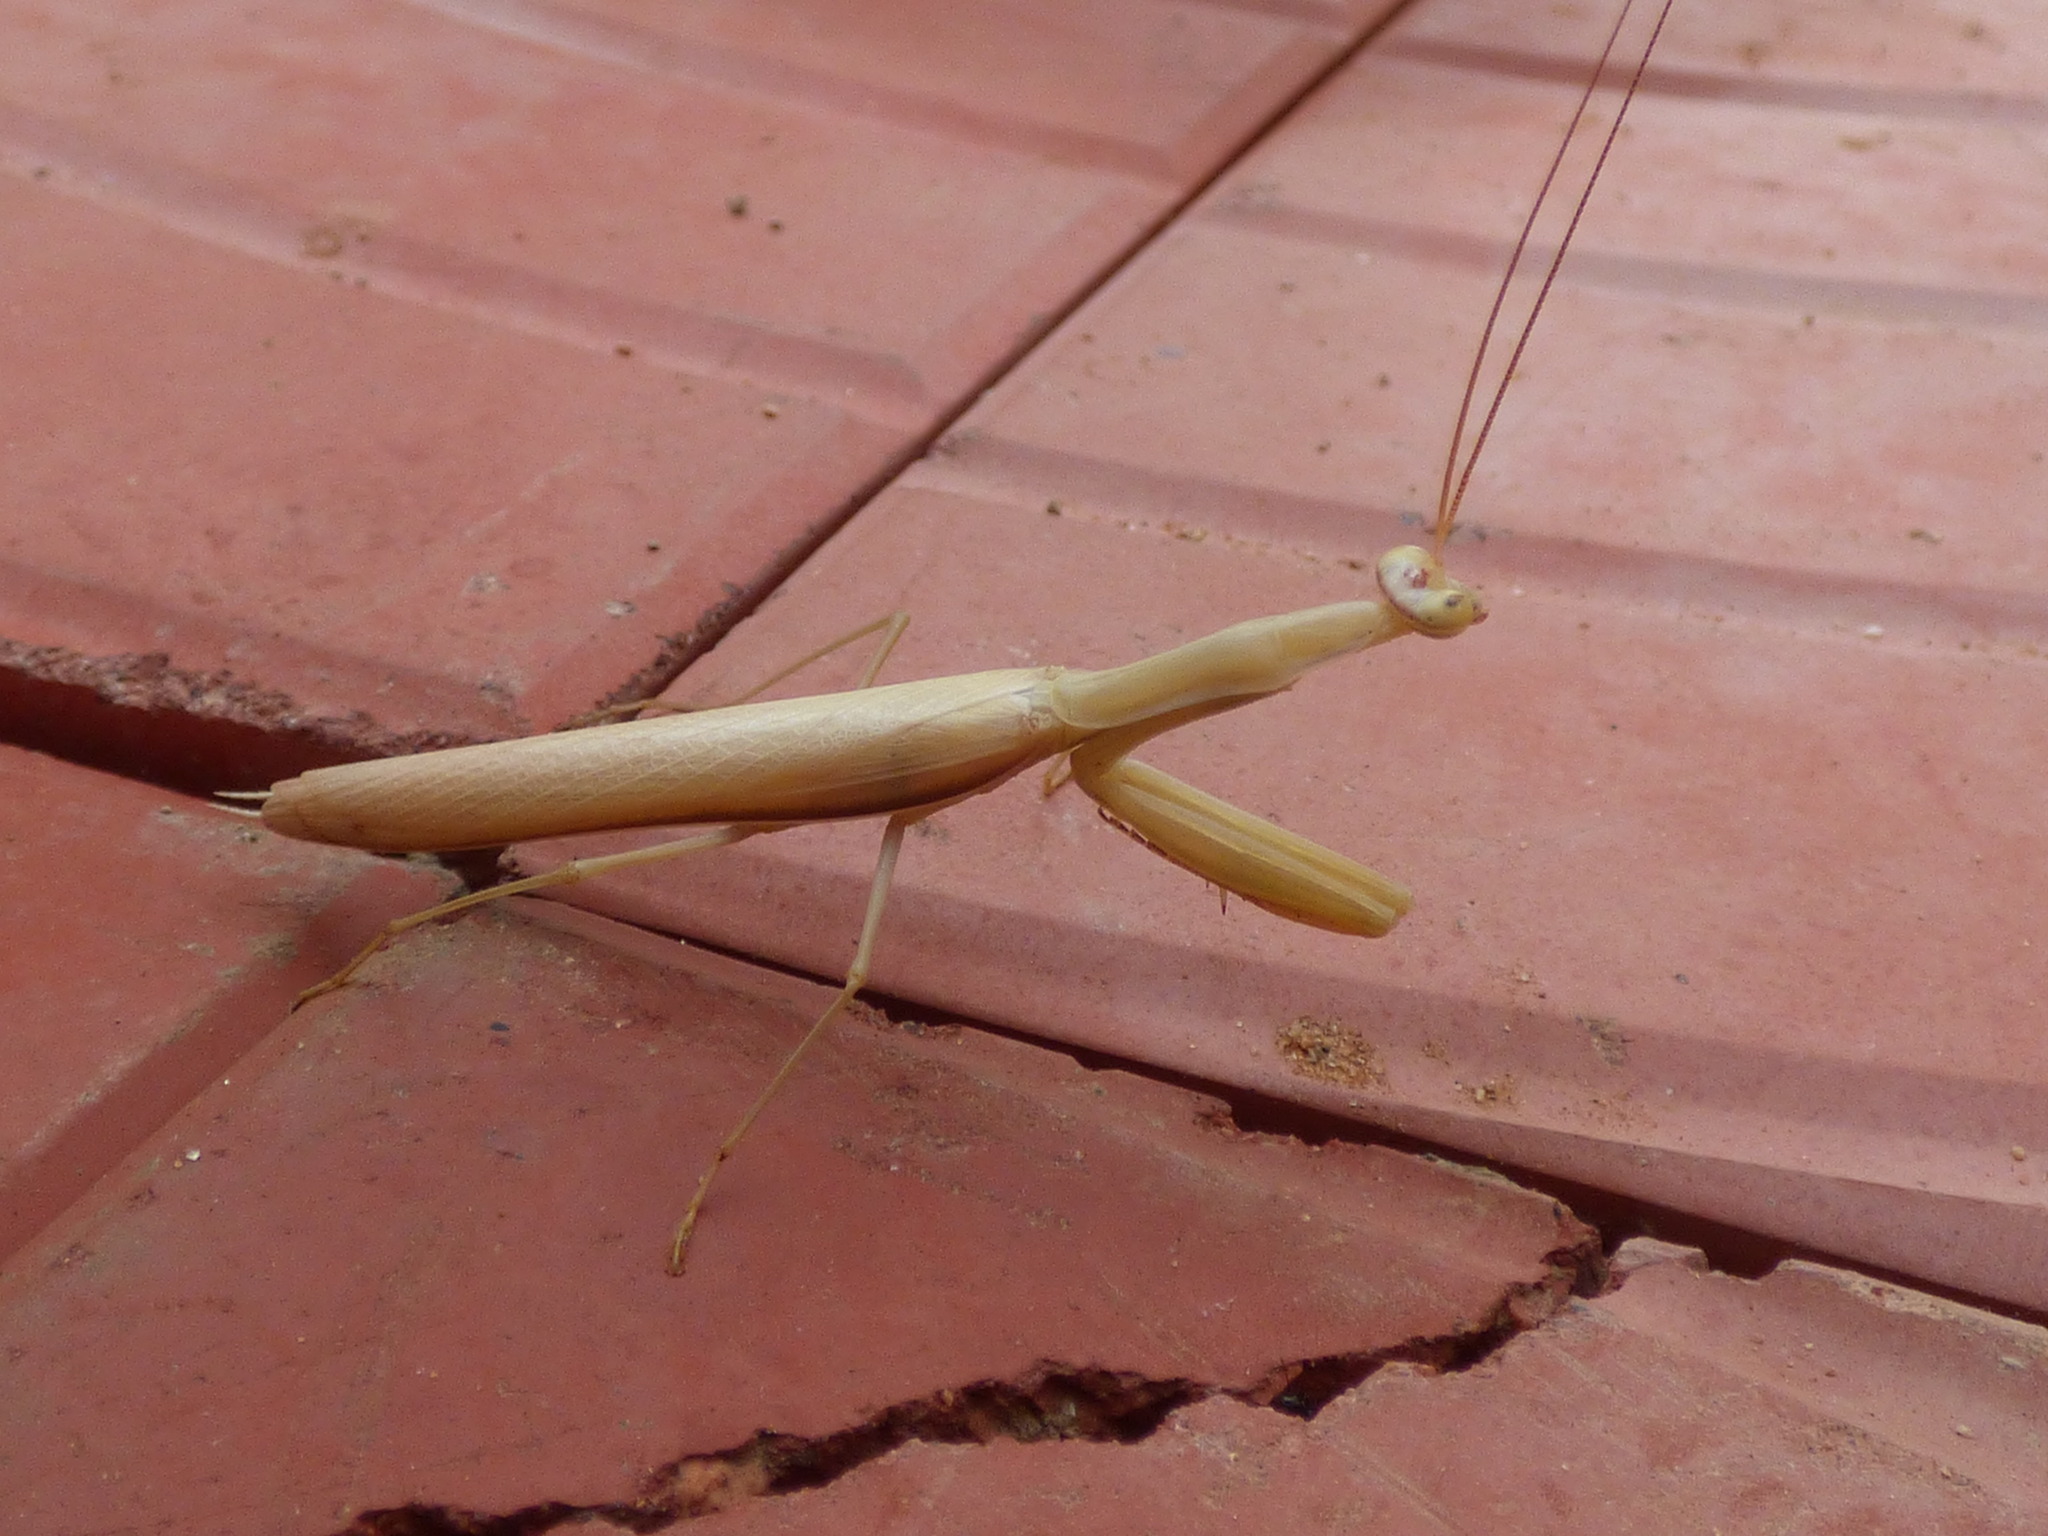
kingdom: Animalia
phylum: Arthropoda
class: Insecta
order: Mantodea
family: Mantidae
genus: Mantis
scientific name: Mantis religiosa
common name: Praying mantis
